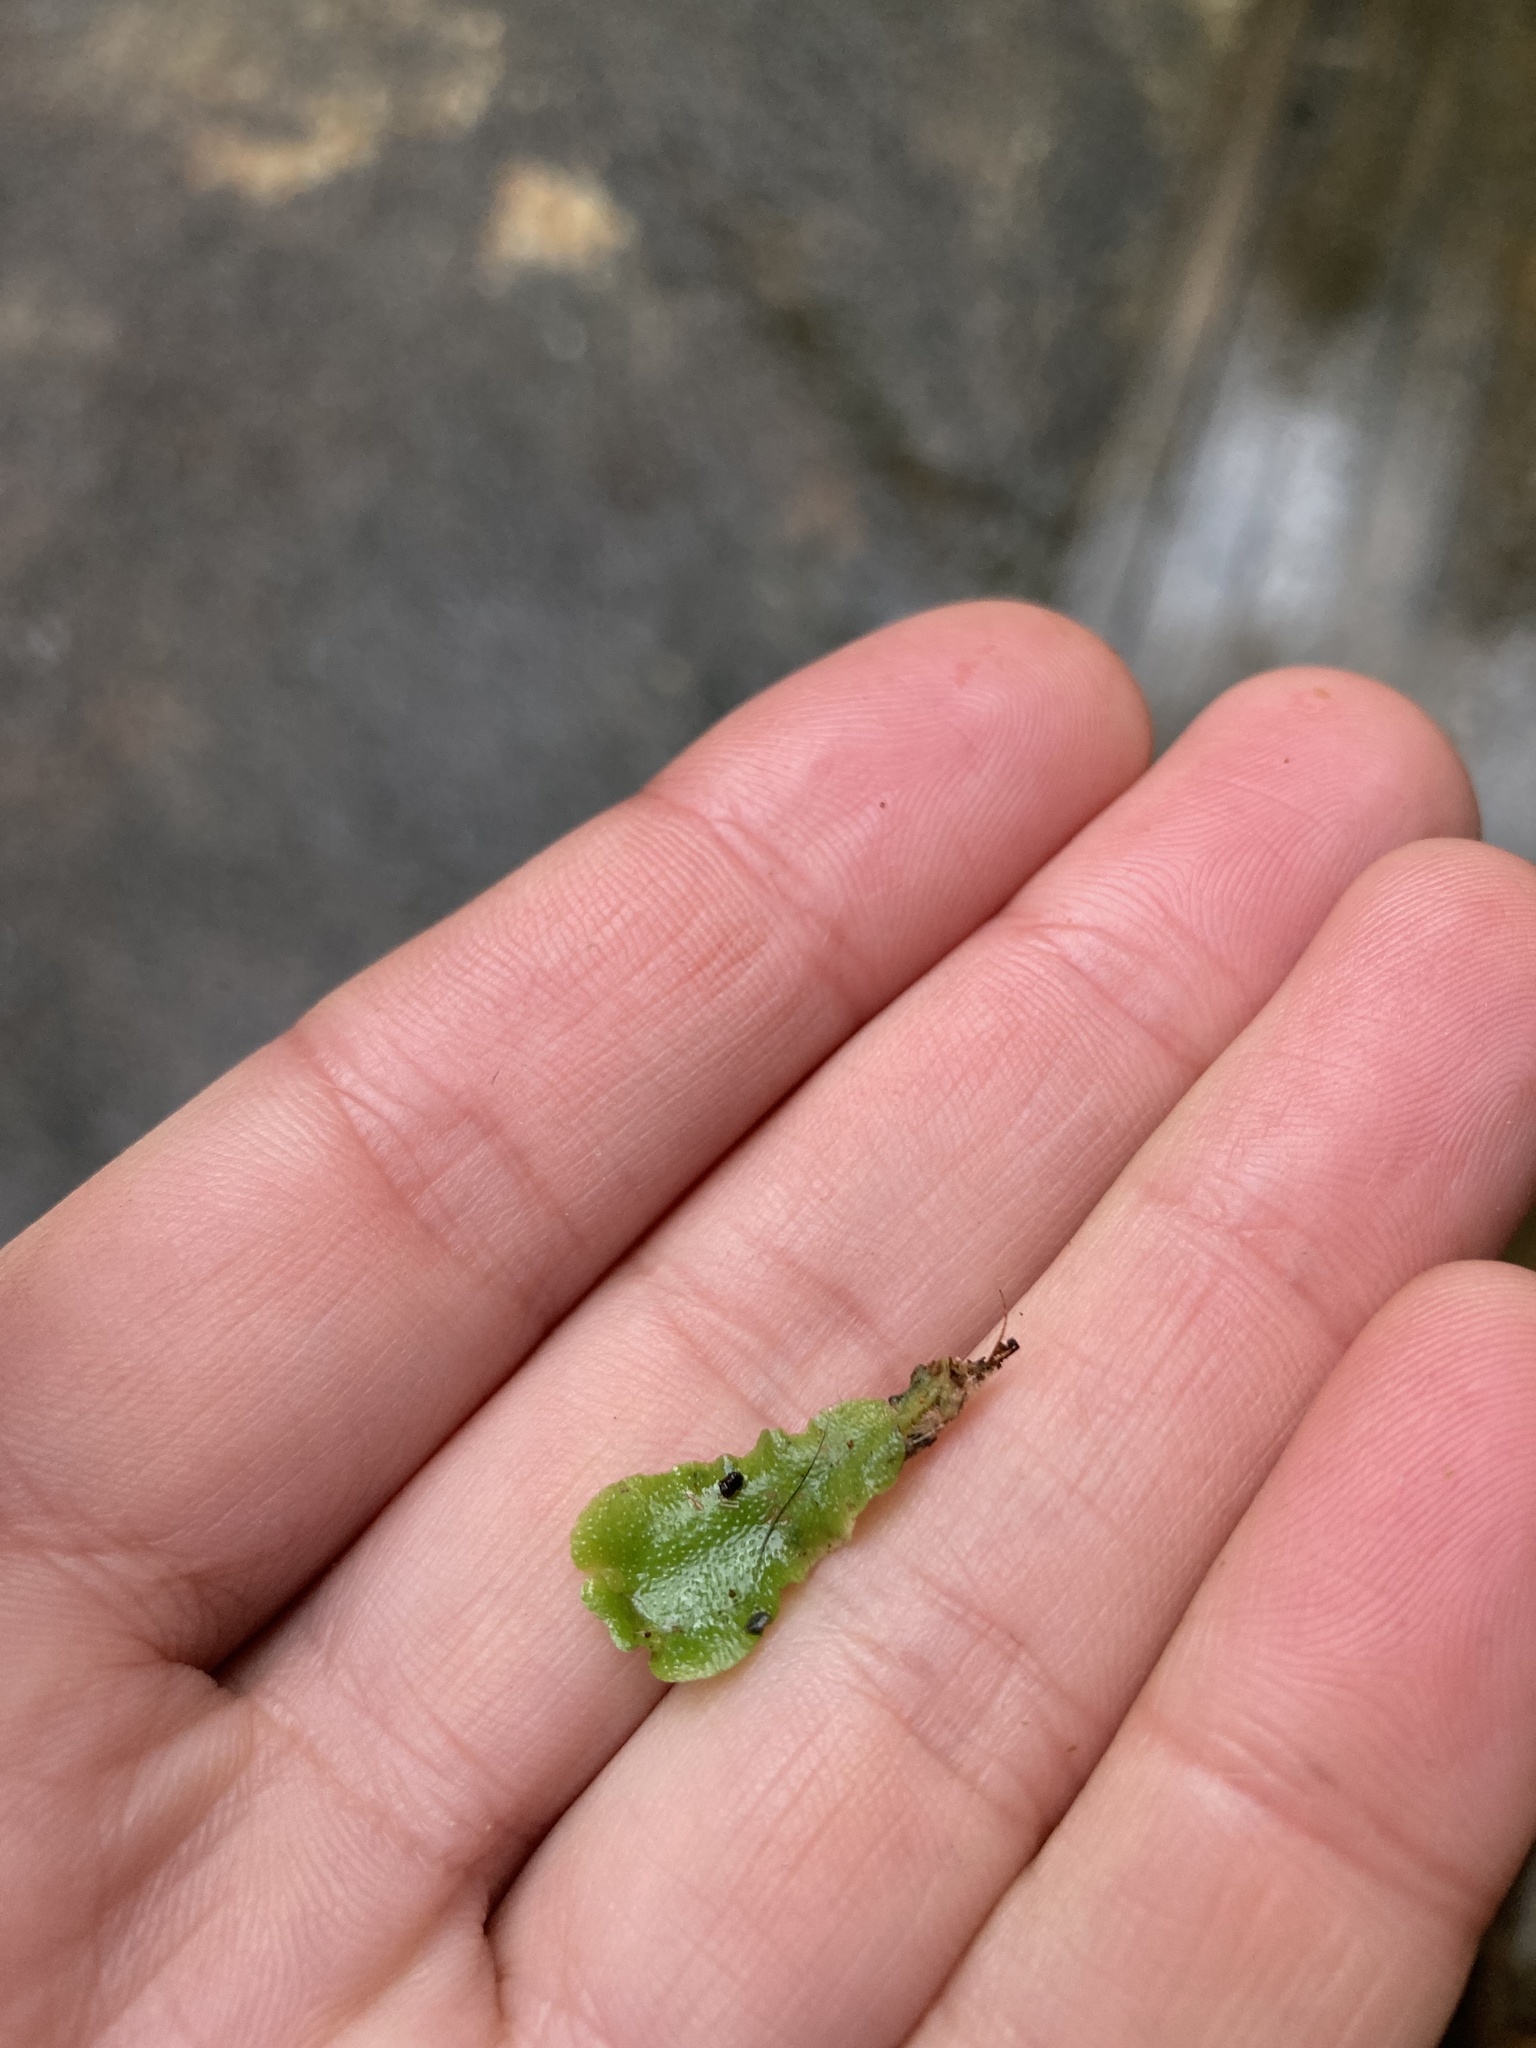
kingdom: Plantae
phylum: Marchantiophyta
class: Marchantiopsida
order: Lunulariales
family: Lunulariaceae
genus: Lunularia
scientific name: Lunularia cruciata
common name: Crescent-cup liverwort
